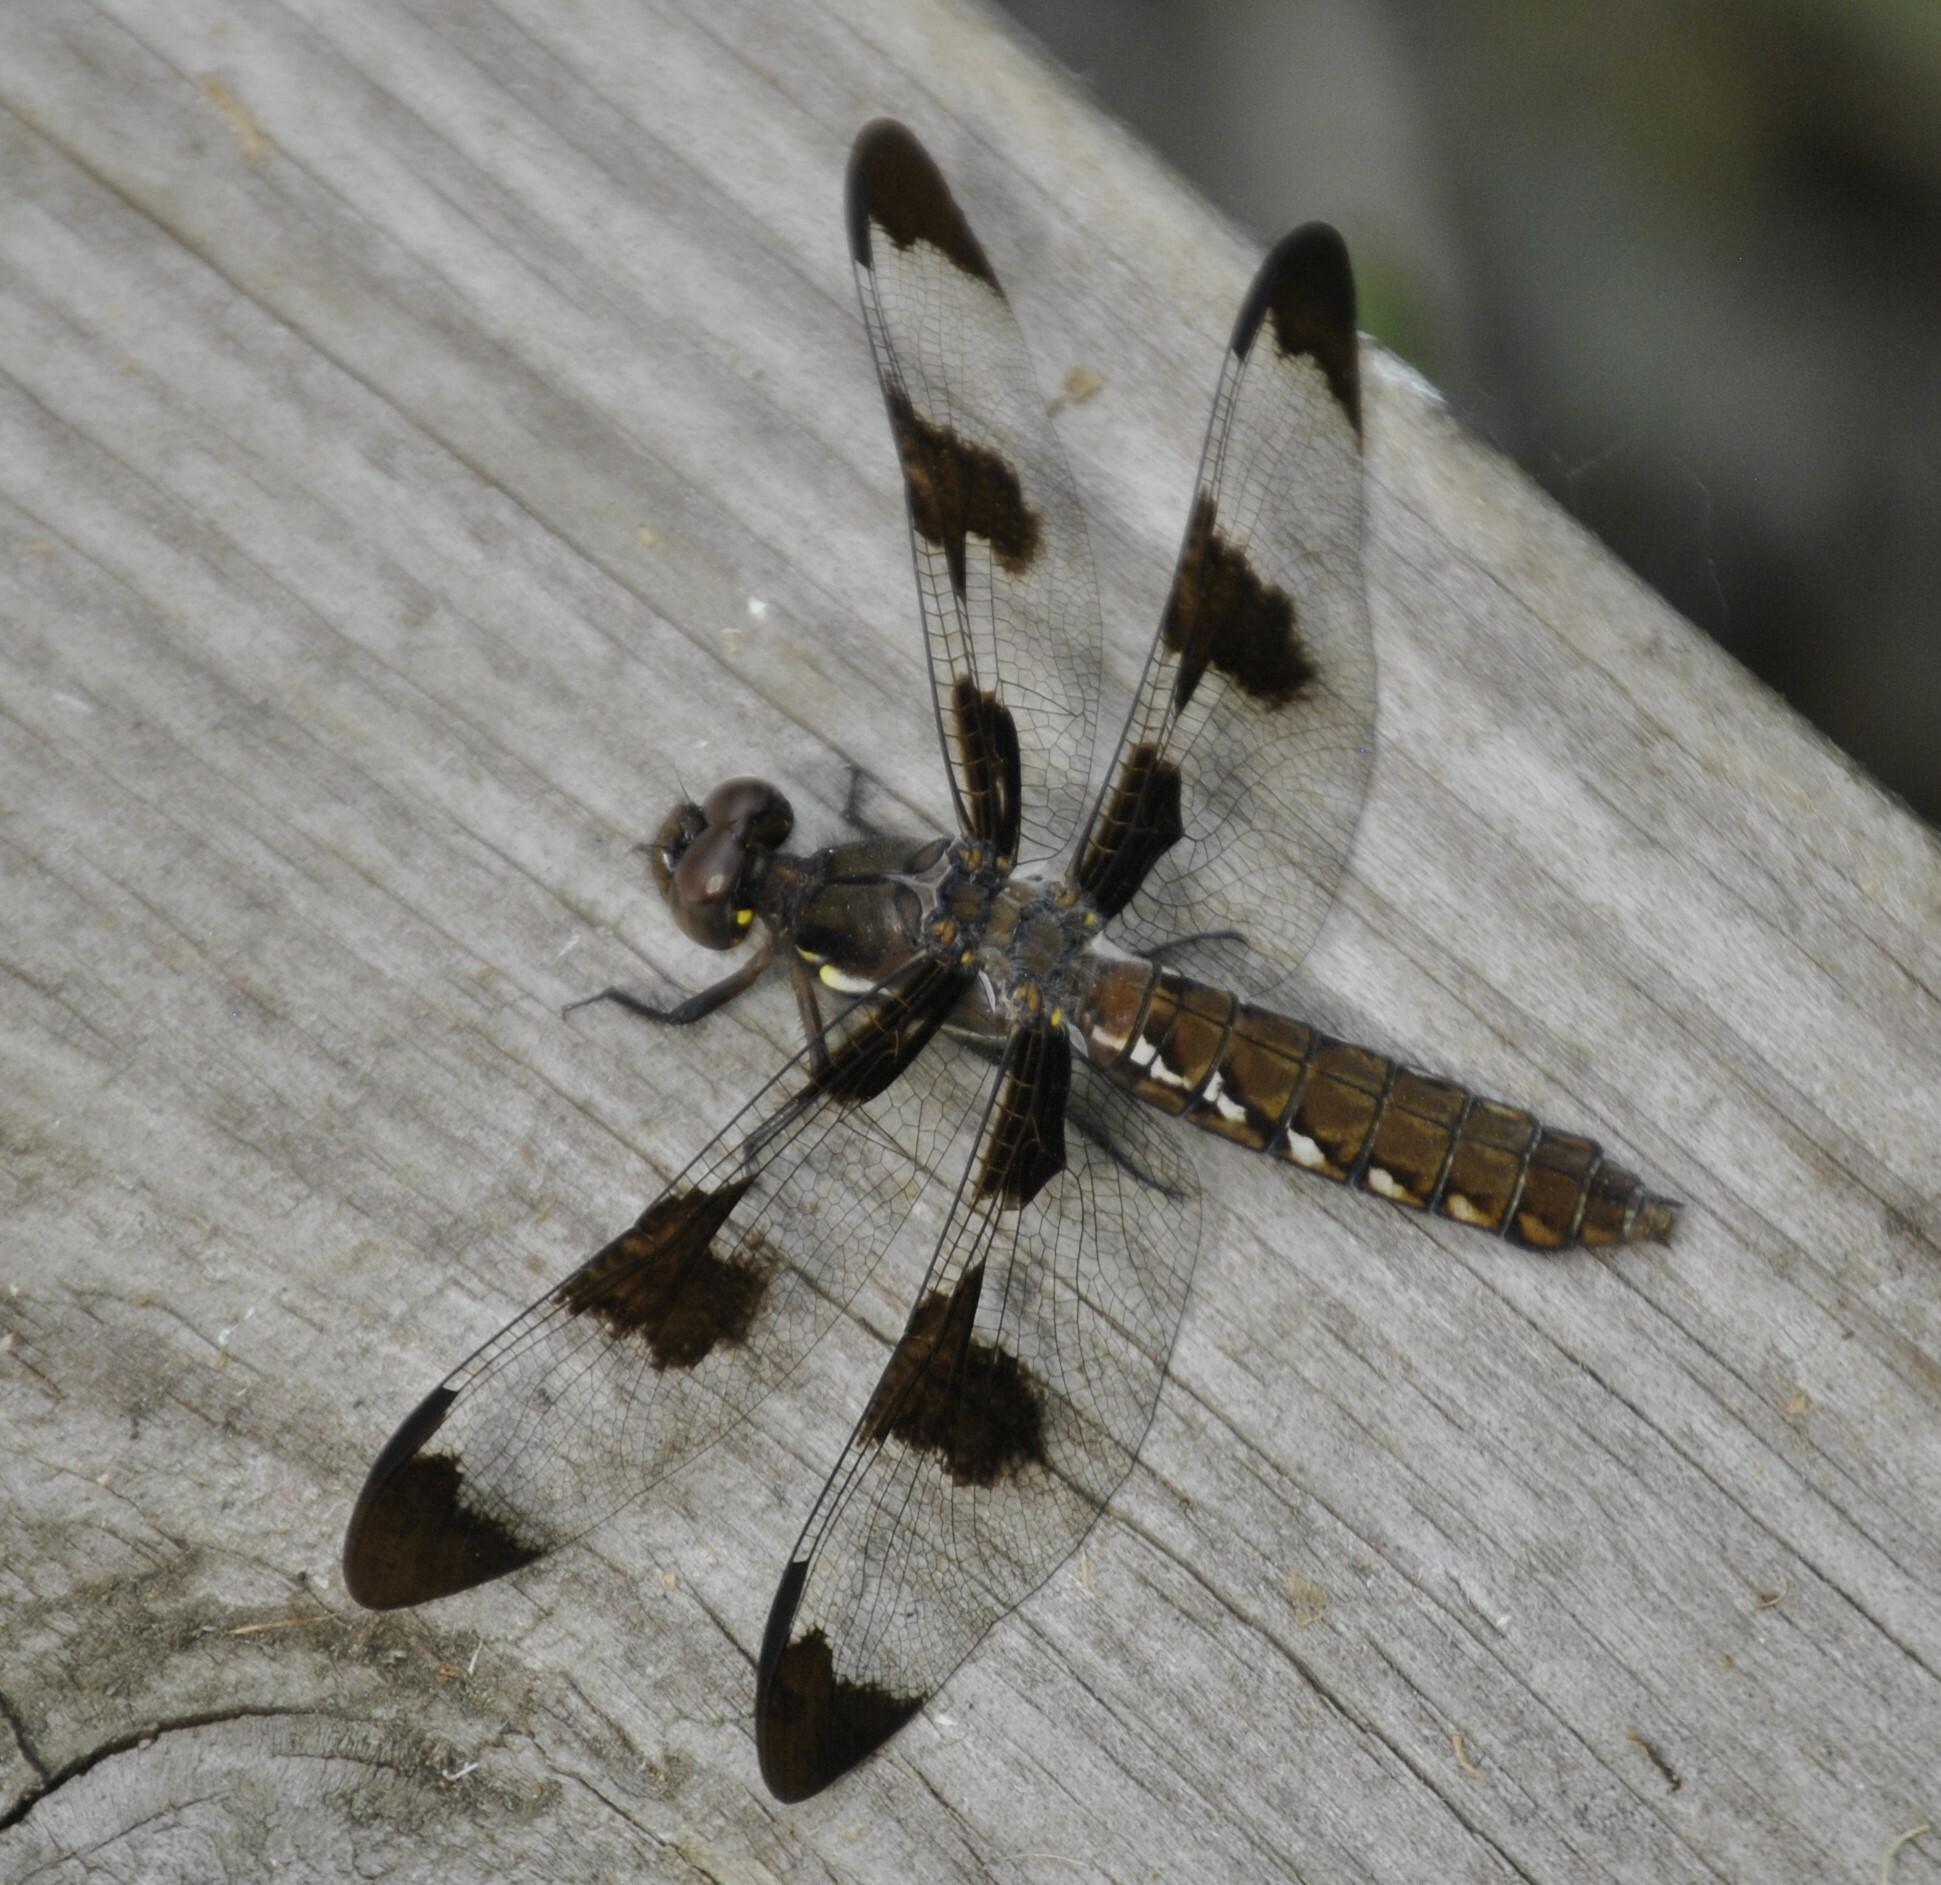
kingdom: Animalia
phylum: Arthropoda
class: Insecta
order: Odonata
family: Libellulidae
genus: Plathemis
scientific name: Plathemis lydia
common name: Common whitetail
